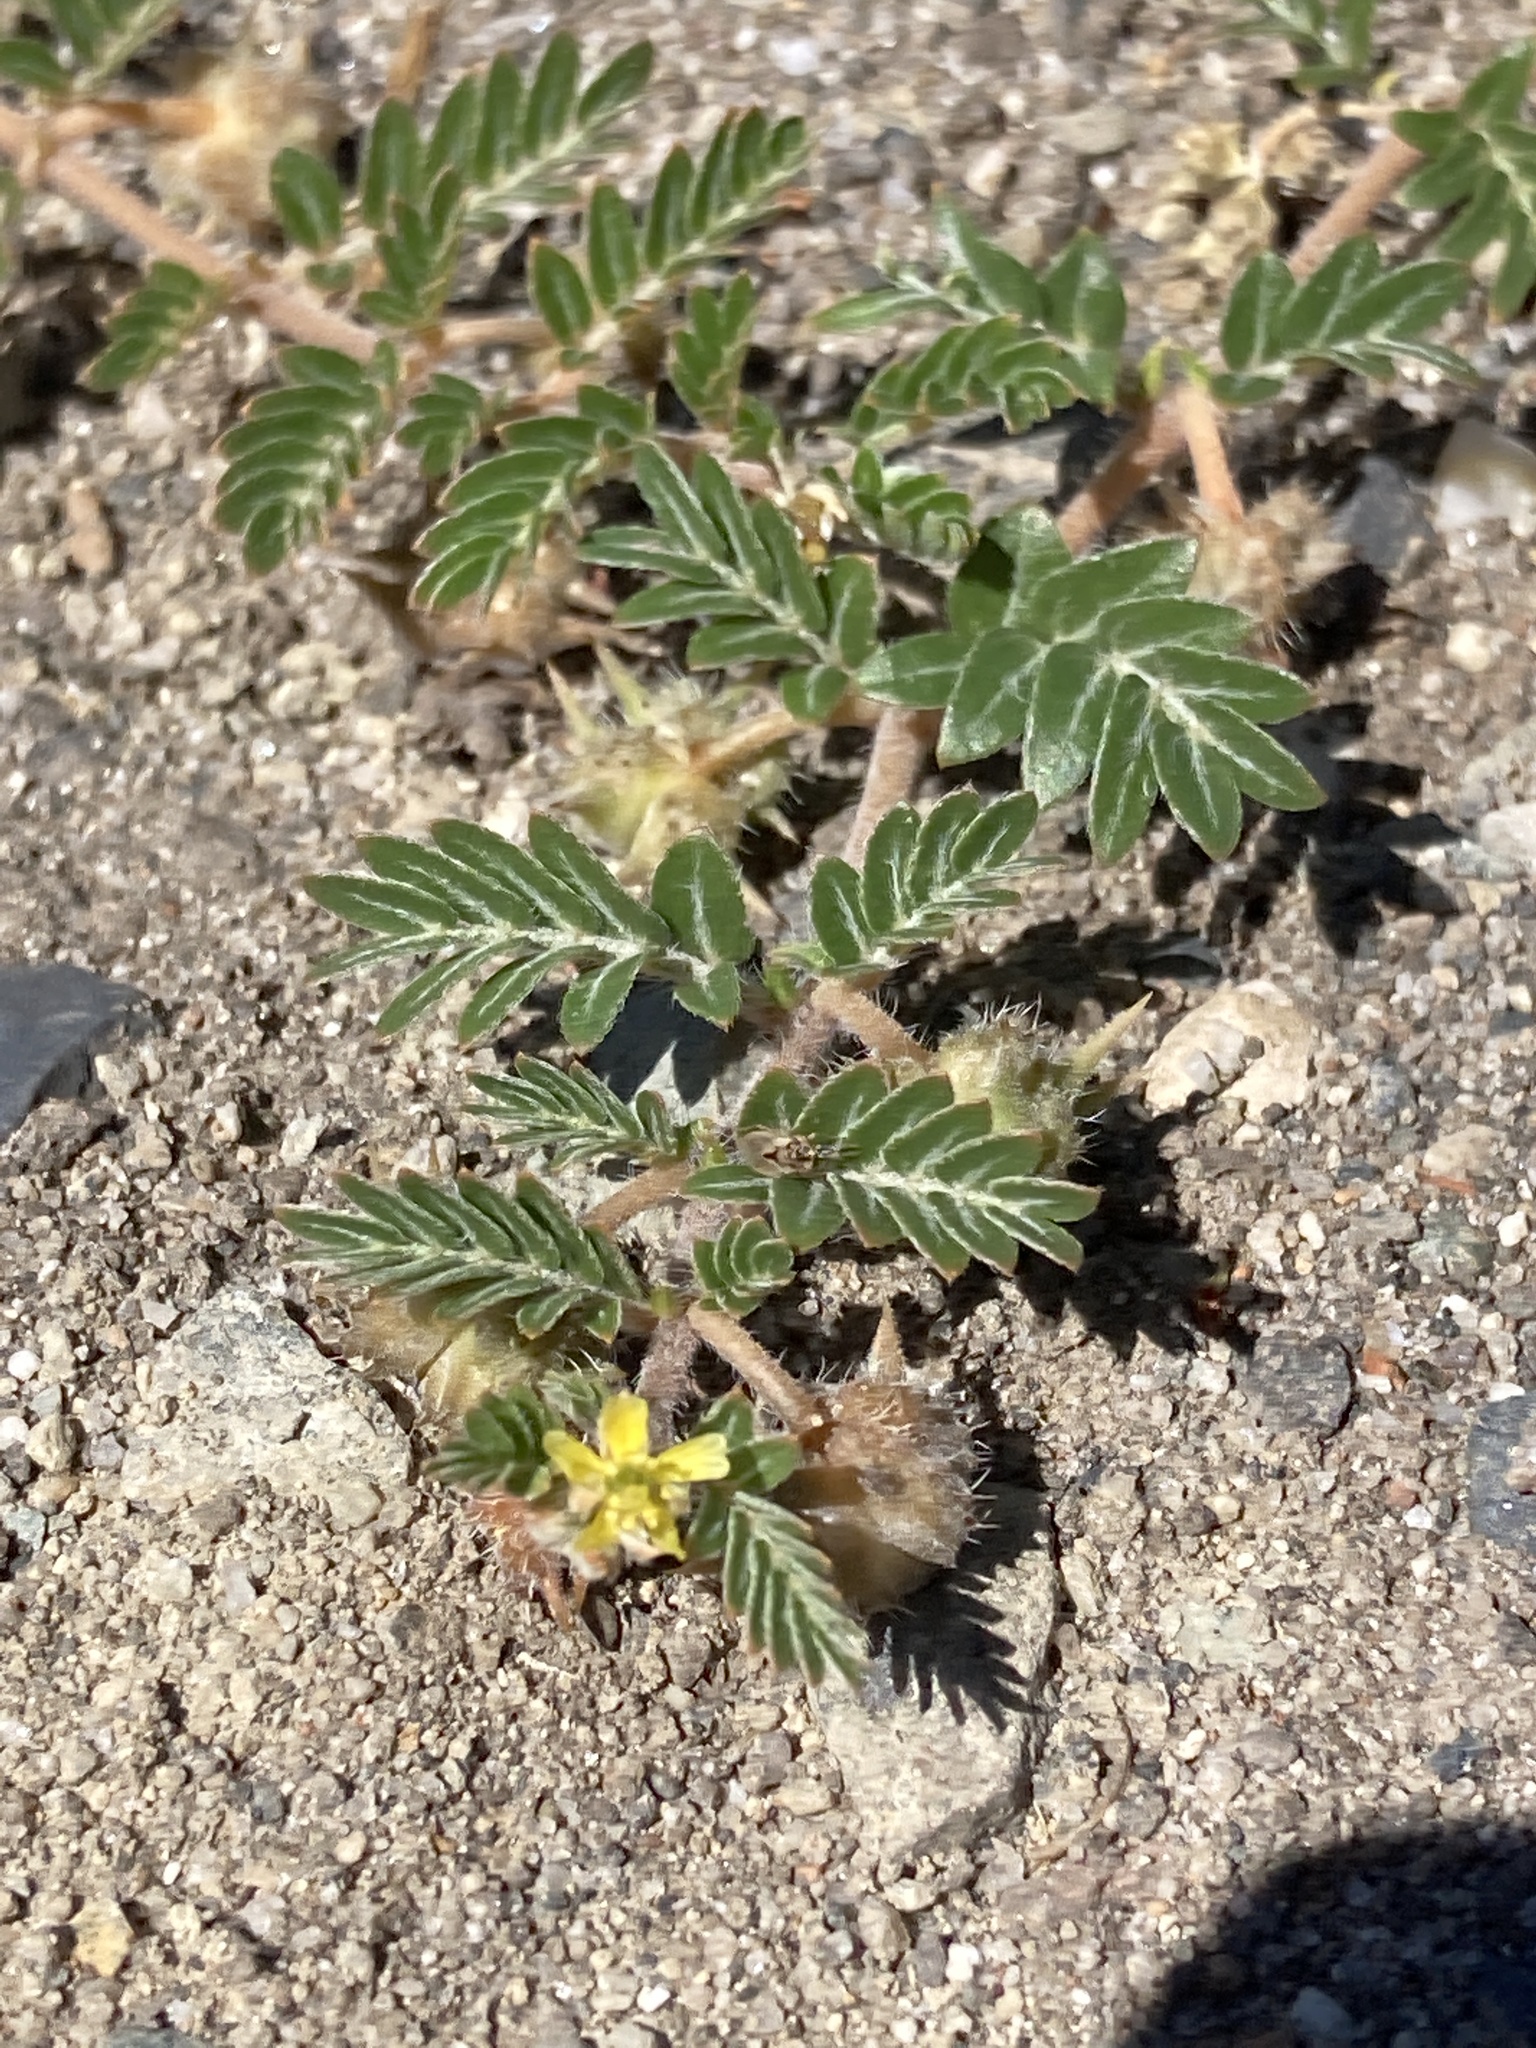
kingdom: Plantae
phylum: Tracheophyta
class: Magnoliopsida
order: Zygophyllales
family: Zygophyllaceae
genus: Tribulus
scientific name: Tribulus terrestris
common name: Puncturevine
